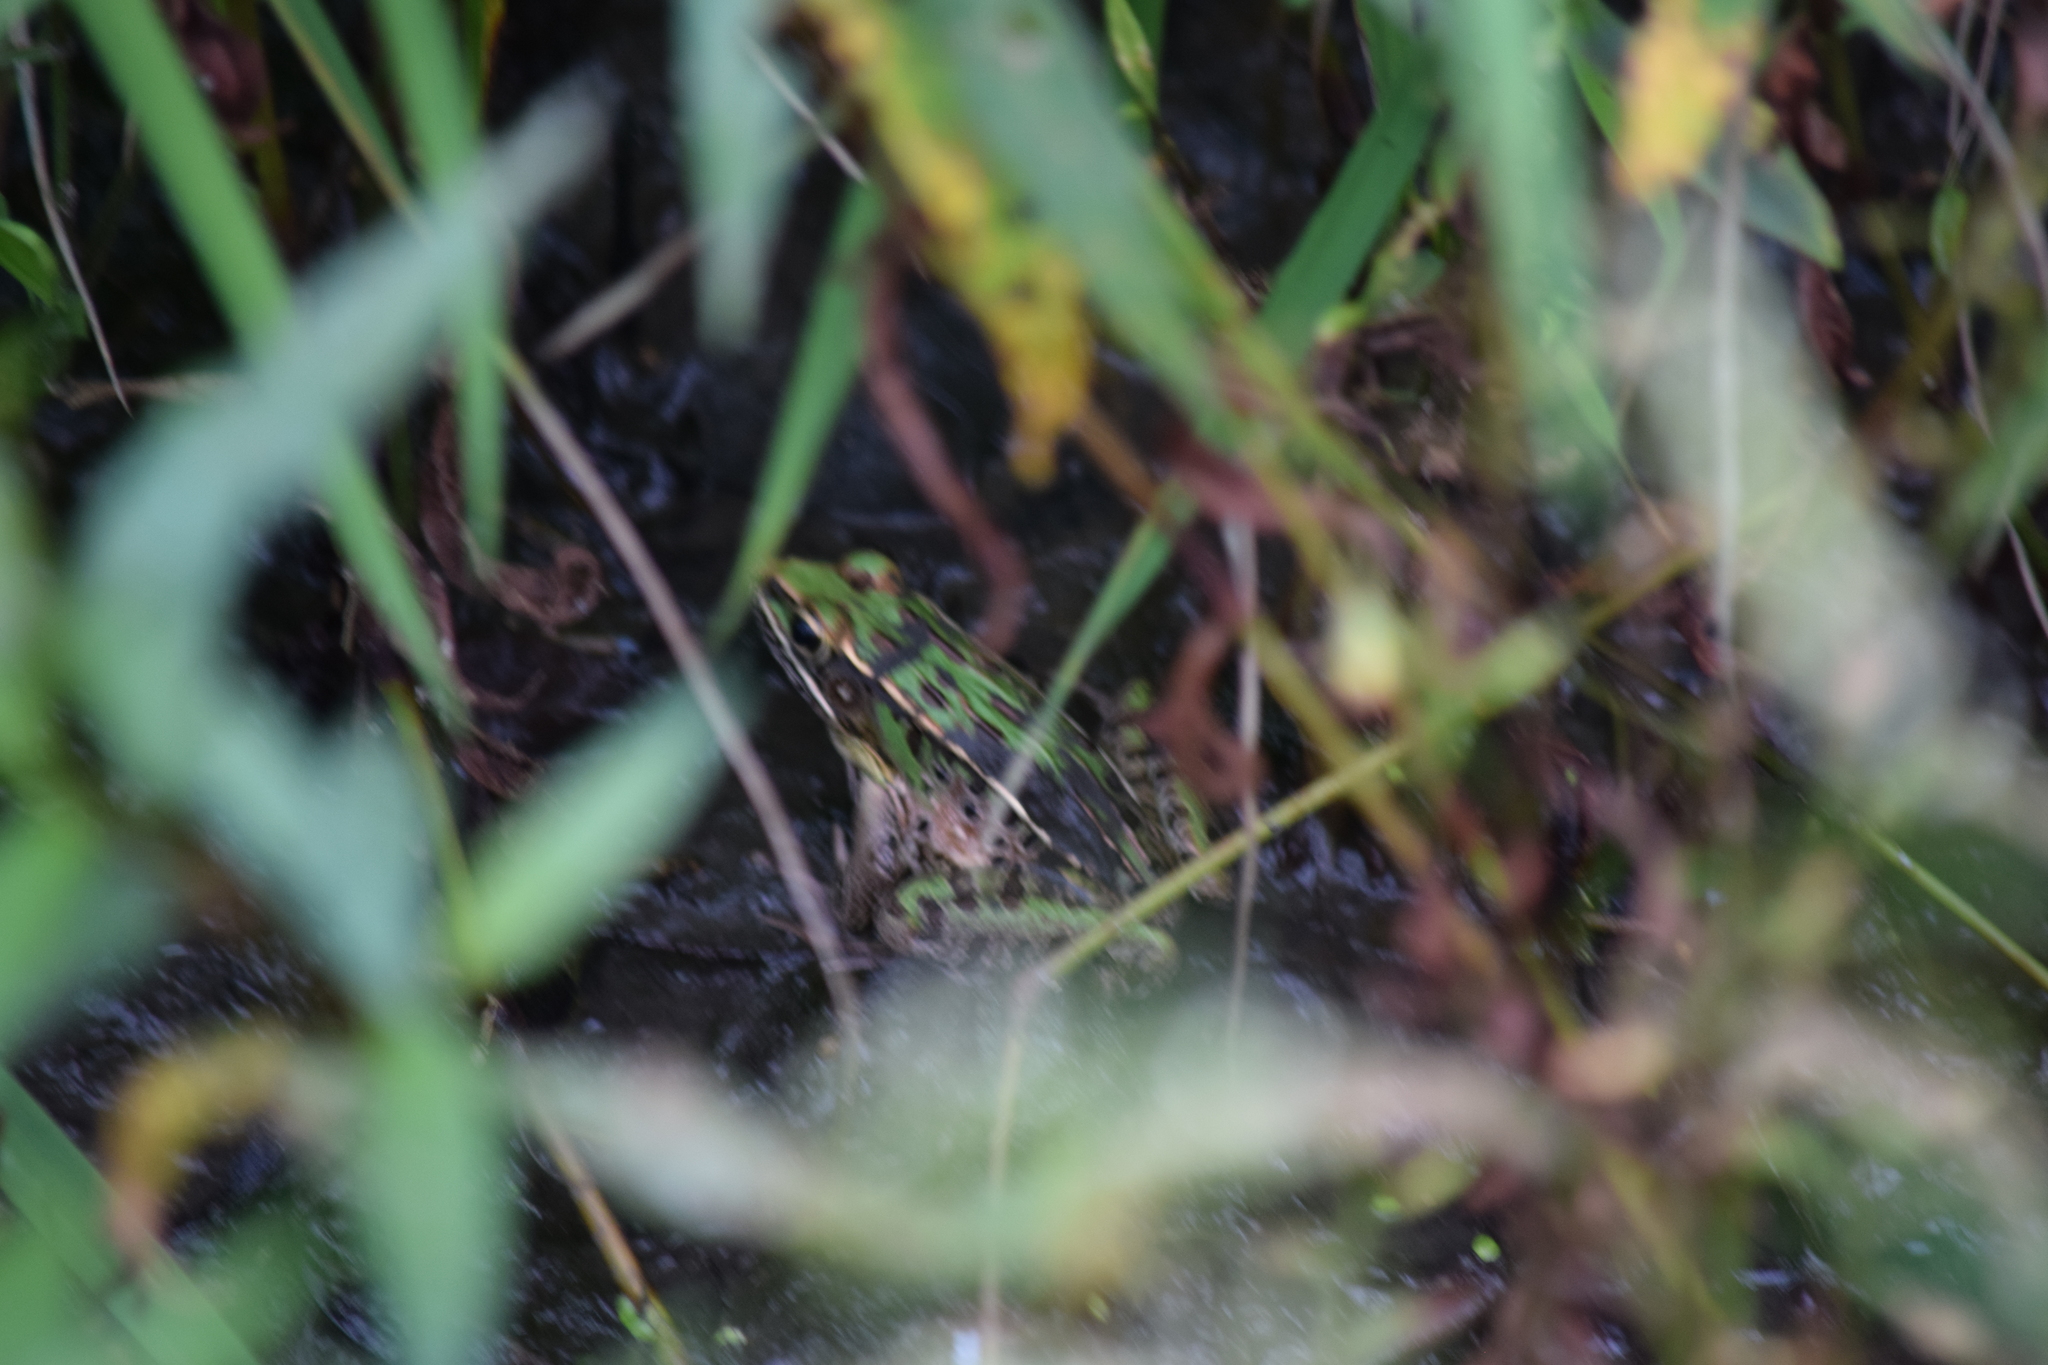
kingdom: Animalia
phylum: Chordata
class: Amphibia
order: Anura
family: Ranidae
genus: Lithobates
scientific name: Lithobates sphenocephalus
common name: Southern leopard frog
